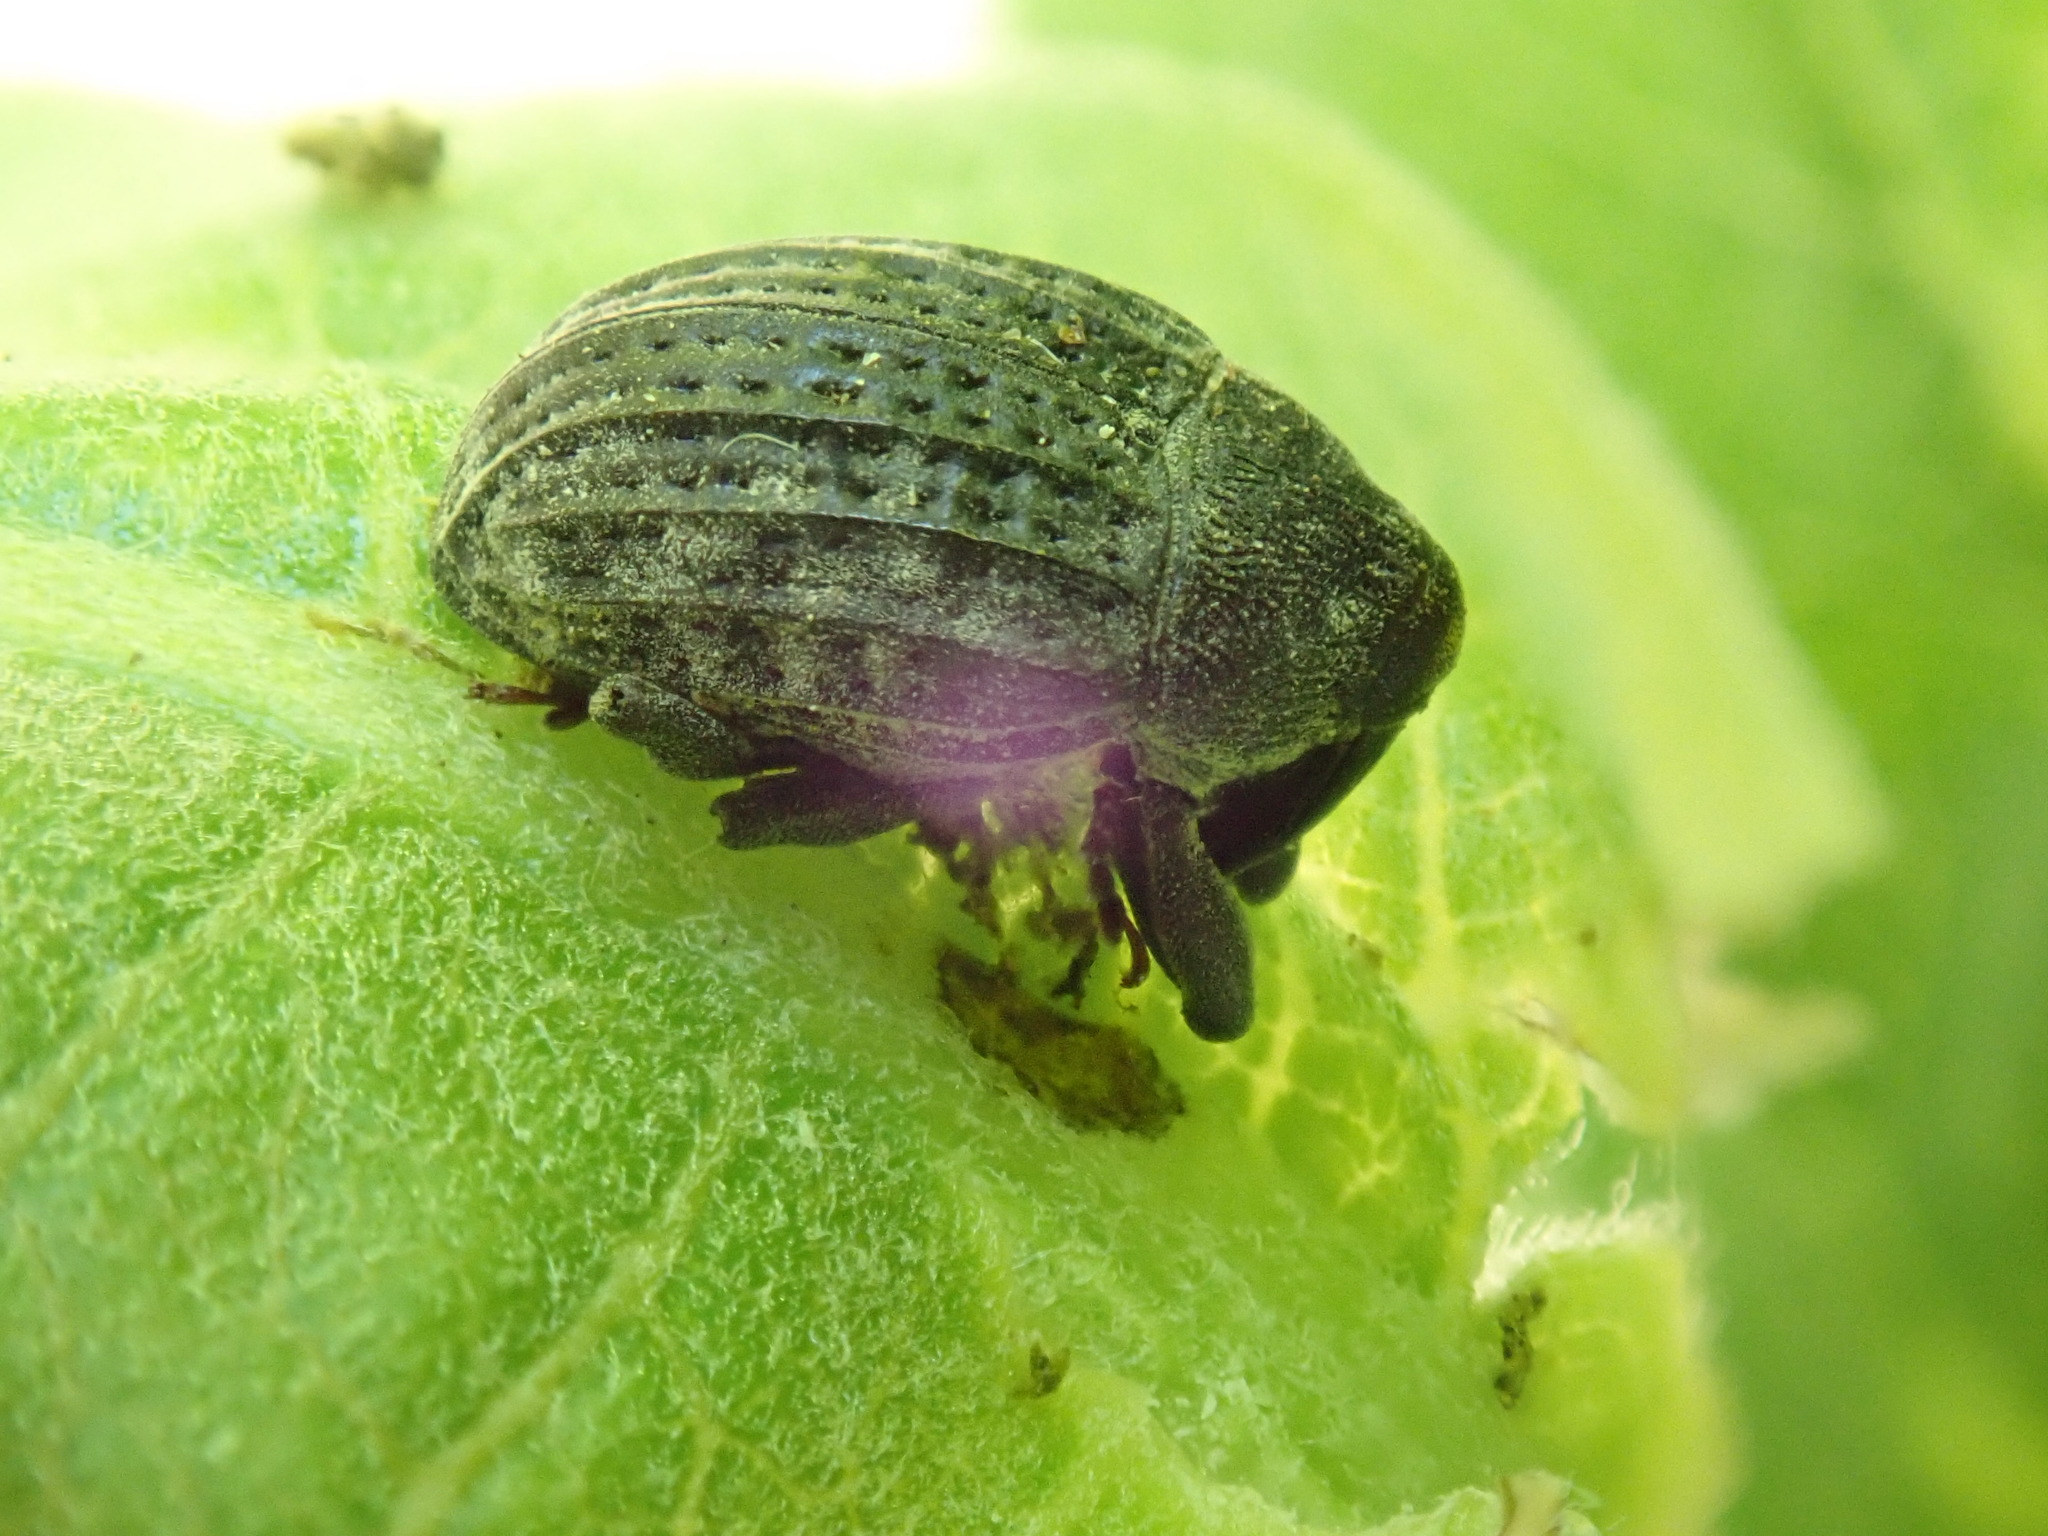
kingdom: Animalia
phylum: Arthropoda
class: Insecta
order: Coleoptera
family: Curculionidae
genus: Rhyssomatus
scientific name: Rhyssomatus lineaticollis
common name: Milkweed stem weevil
